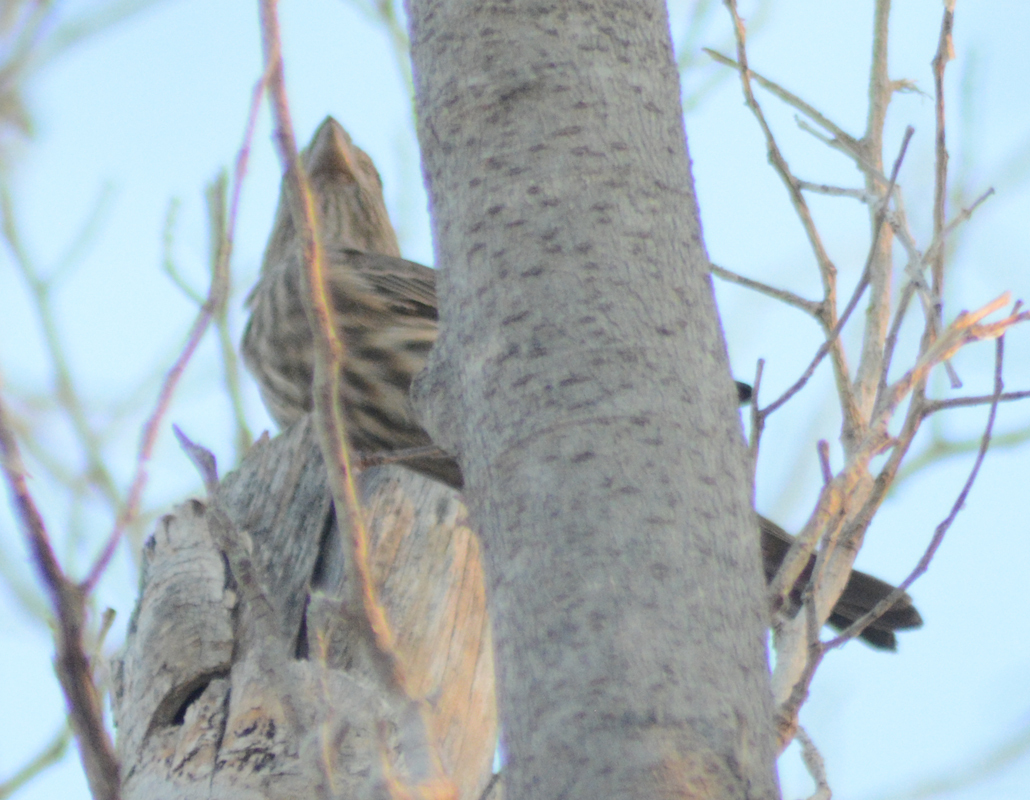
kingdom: Animalia
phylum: Chordata
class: Aves
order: Passeriformes
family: Fringillidae
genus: Haemorhous
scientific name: Haemorhous mexicanus
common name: House finch
